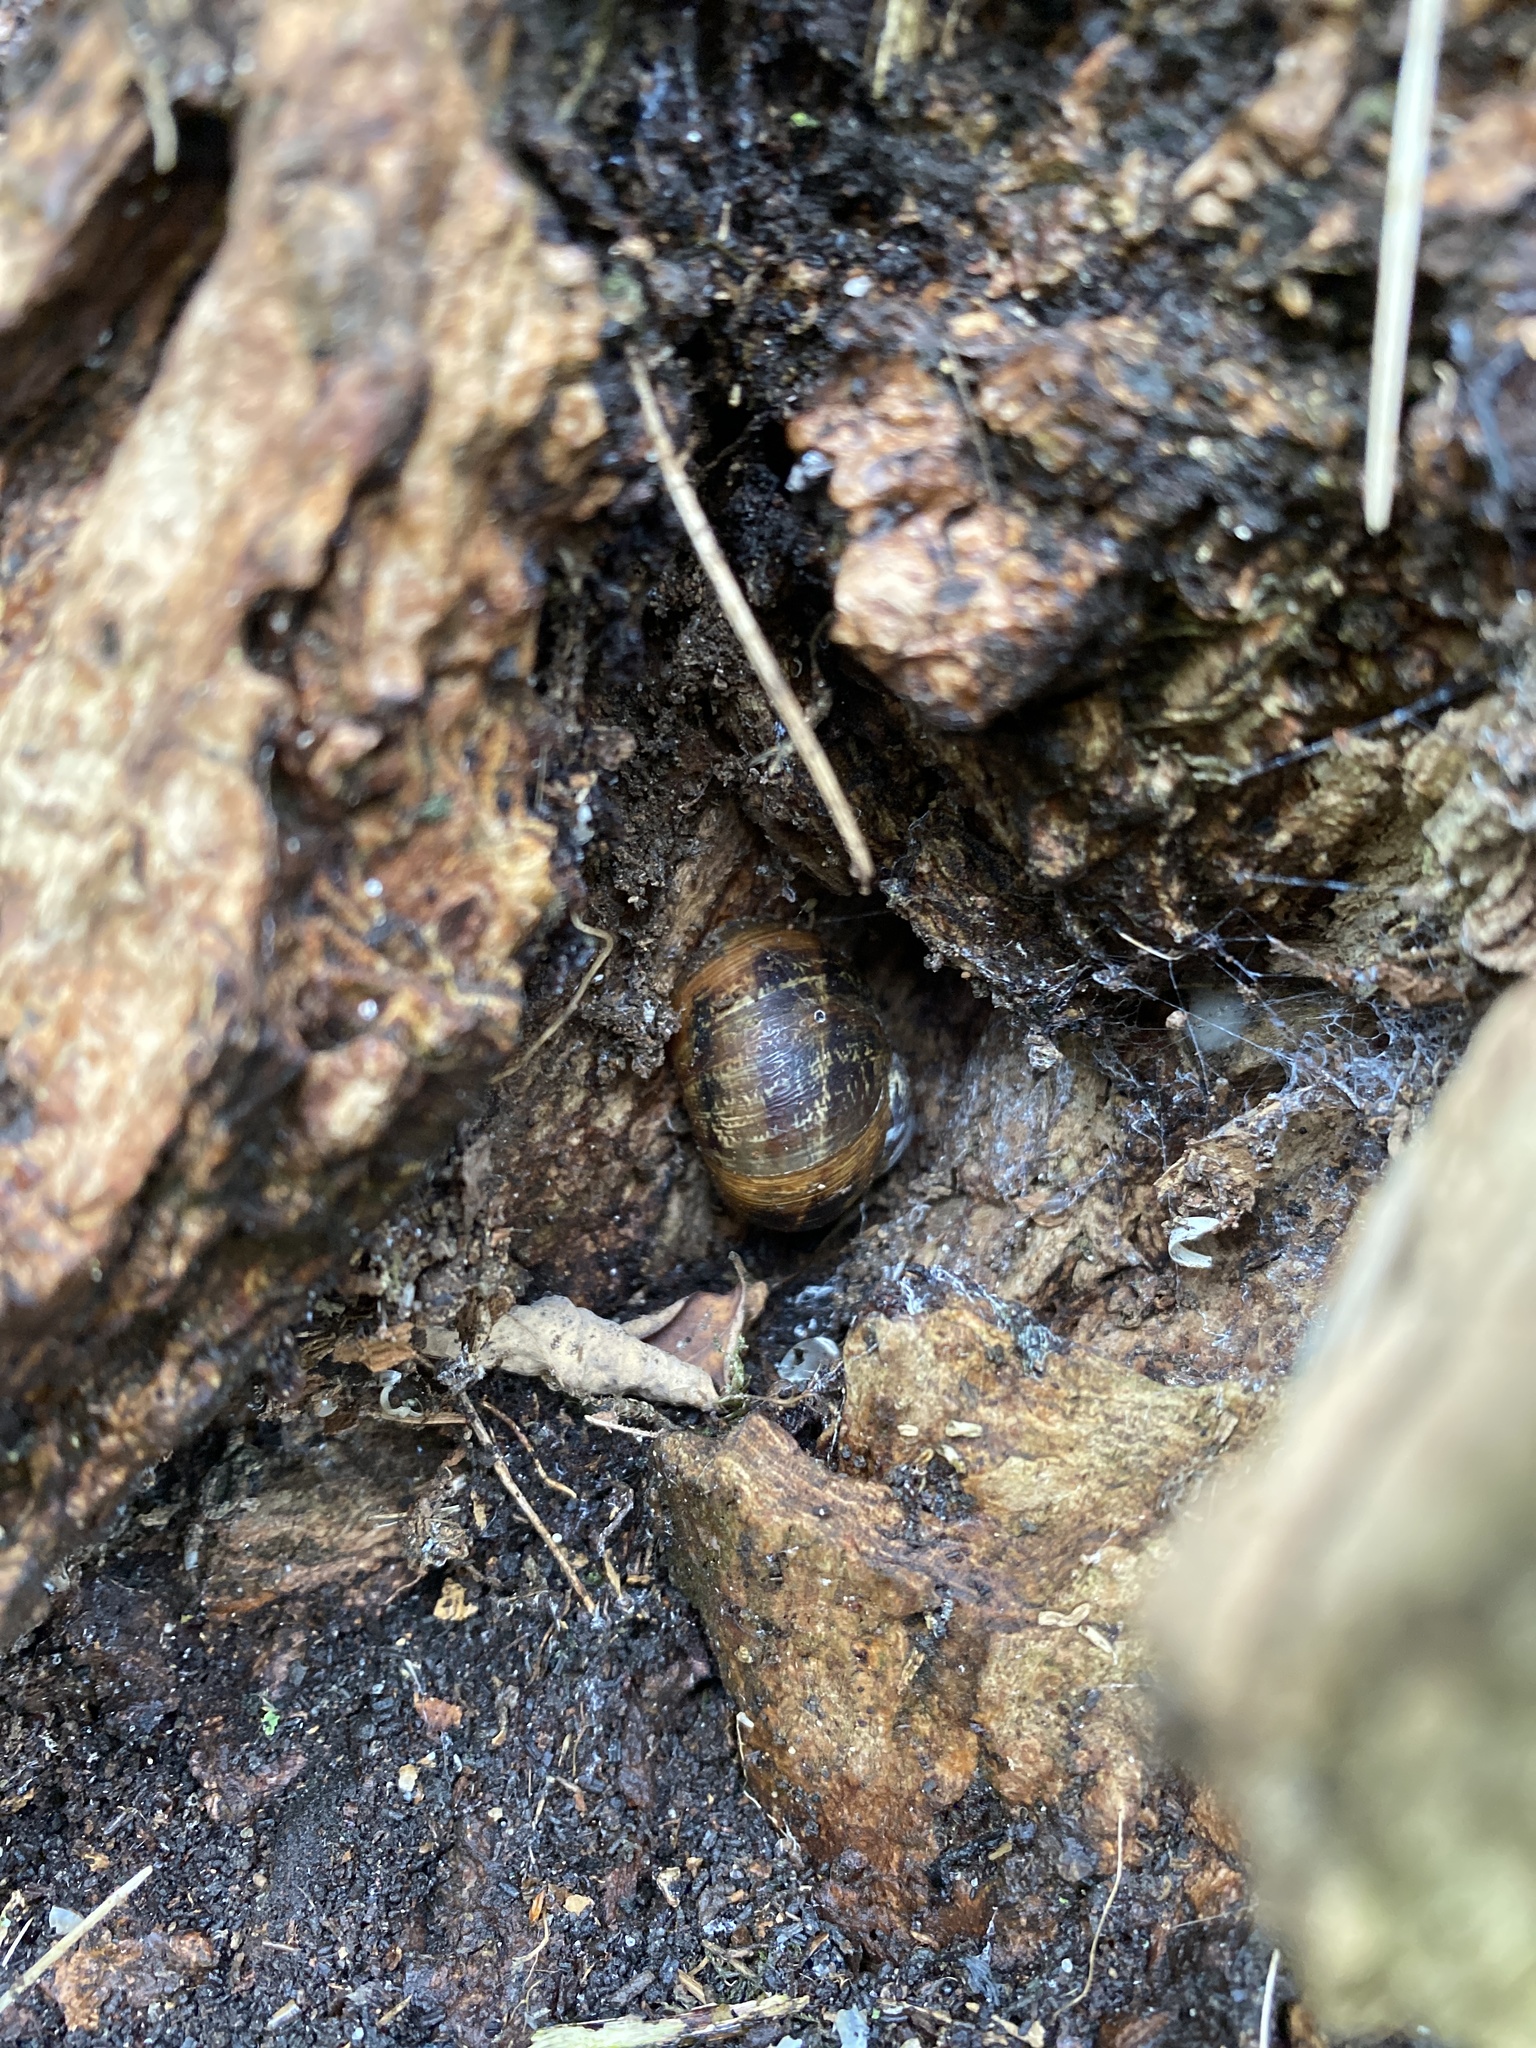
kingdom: Animalia
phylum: Mollusca
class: Gastropoda
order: Stylommatophora
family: Helicidae
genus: Cornu
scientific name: Cornu aspersum
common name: Brown garden snail
